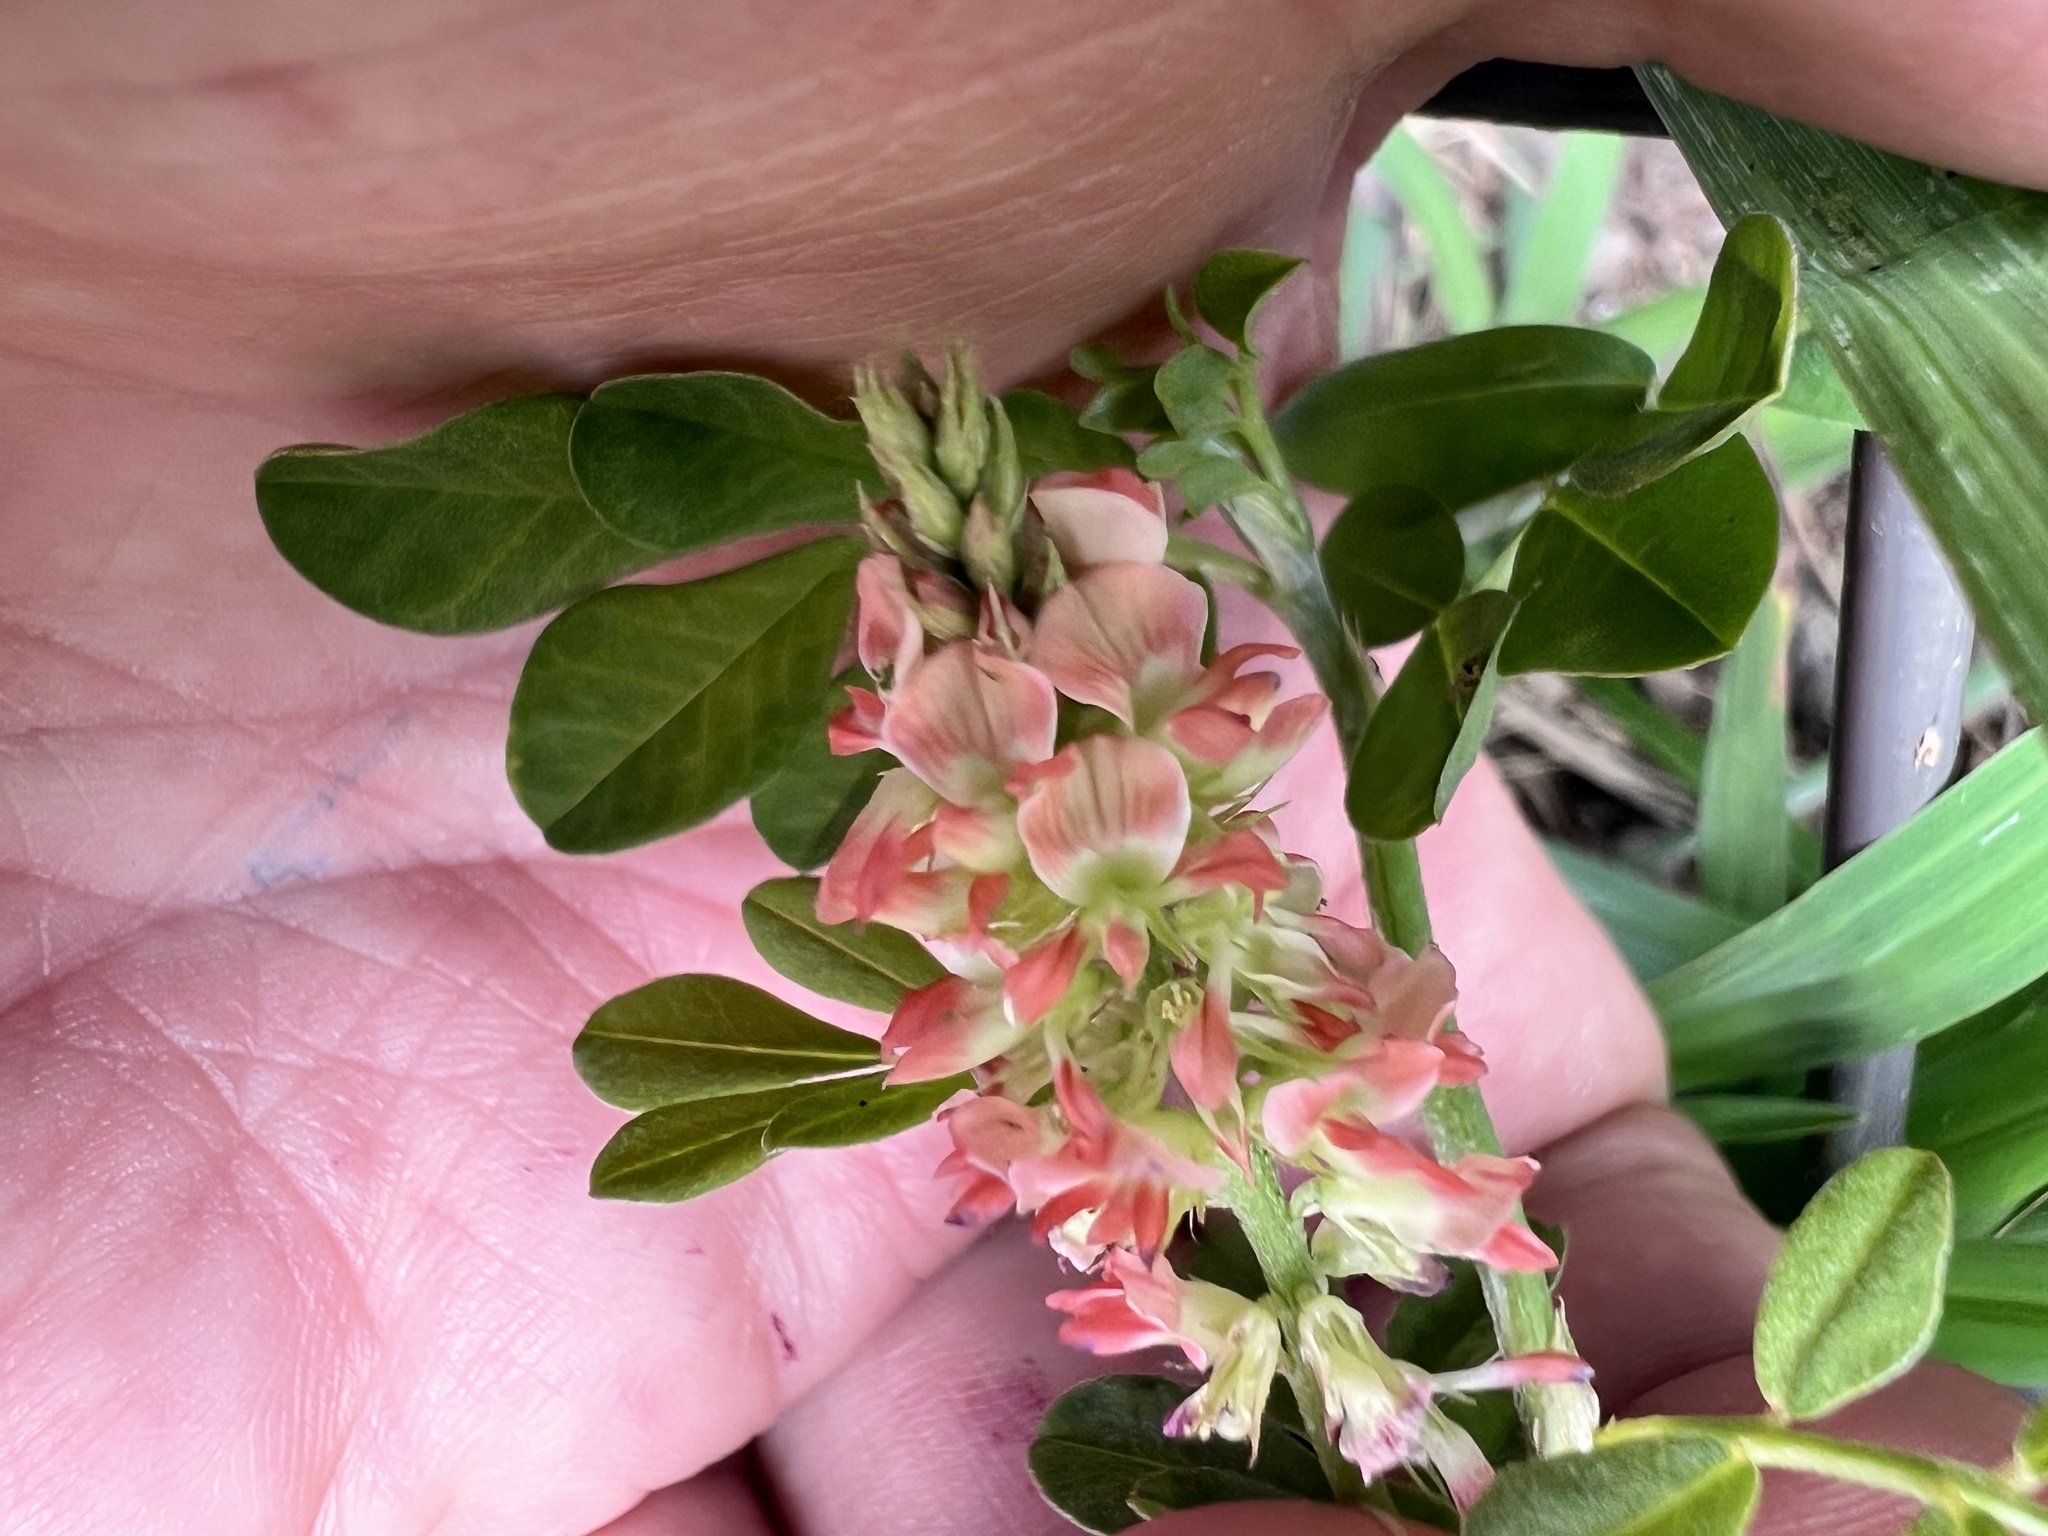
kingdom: Plantae
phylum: Tracheophyta
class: Magnoliopsida
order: Fabales
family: Fabaceae
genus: Indigofera
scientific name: Indigofera spicata
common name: Creeping indigo
